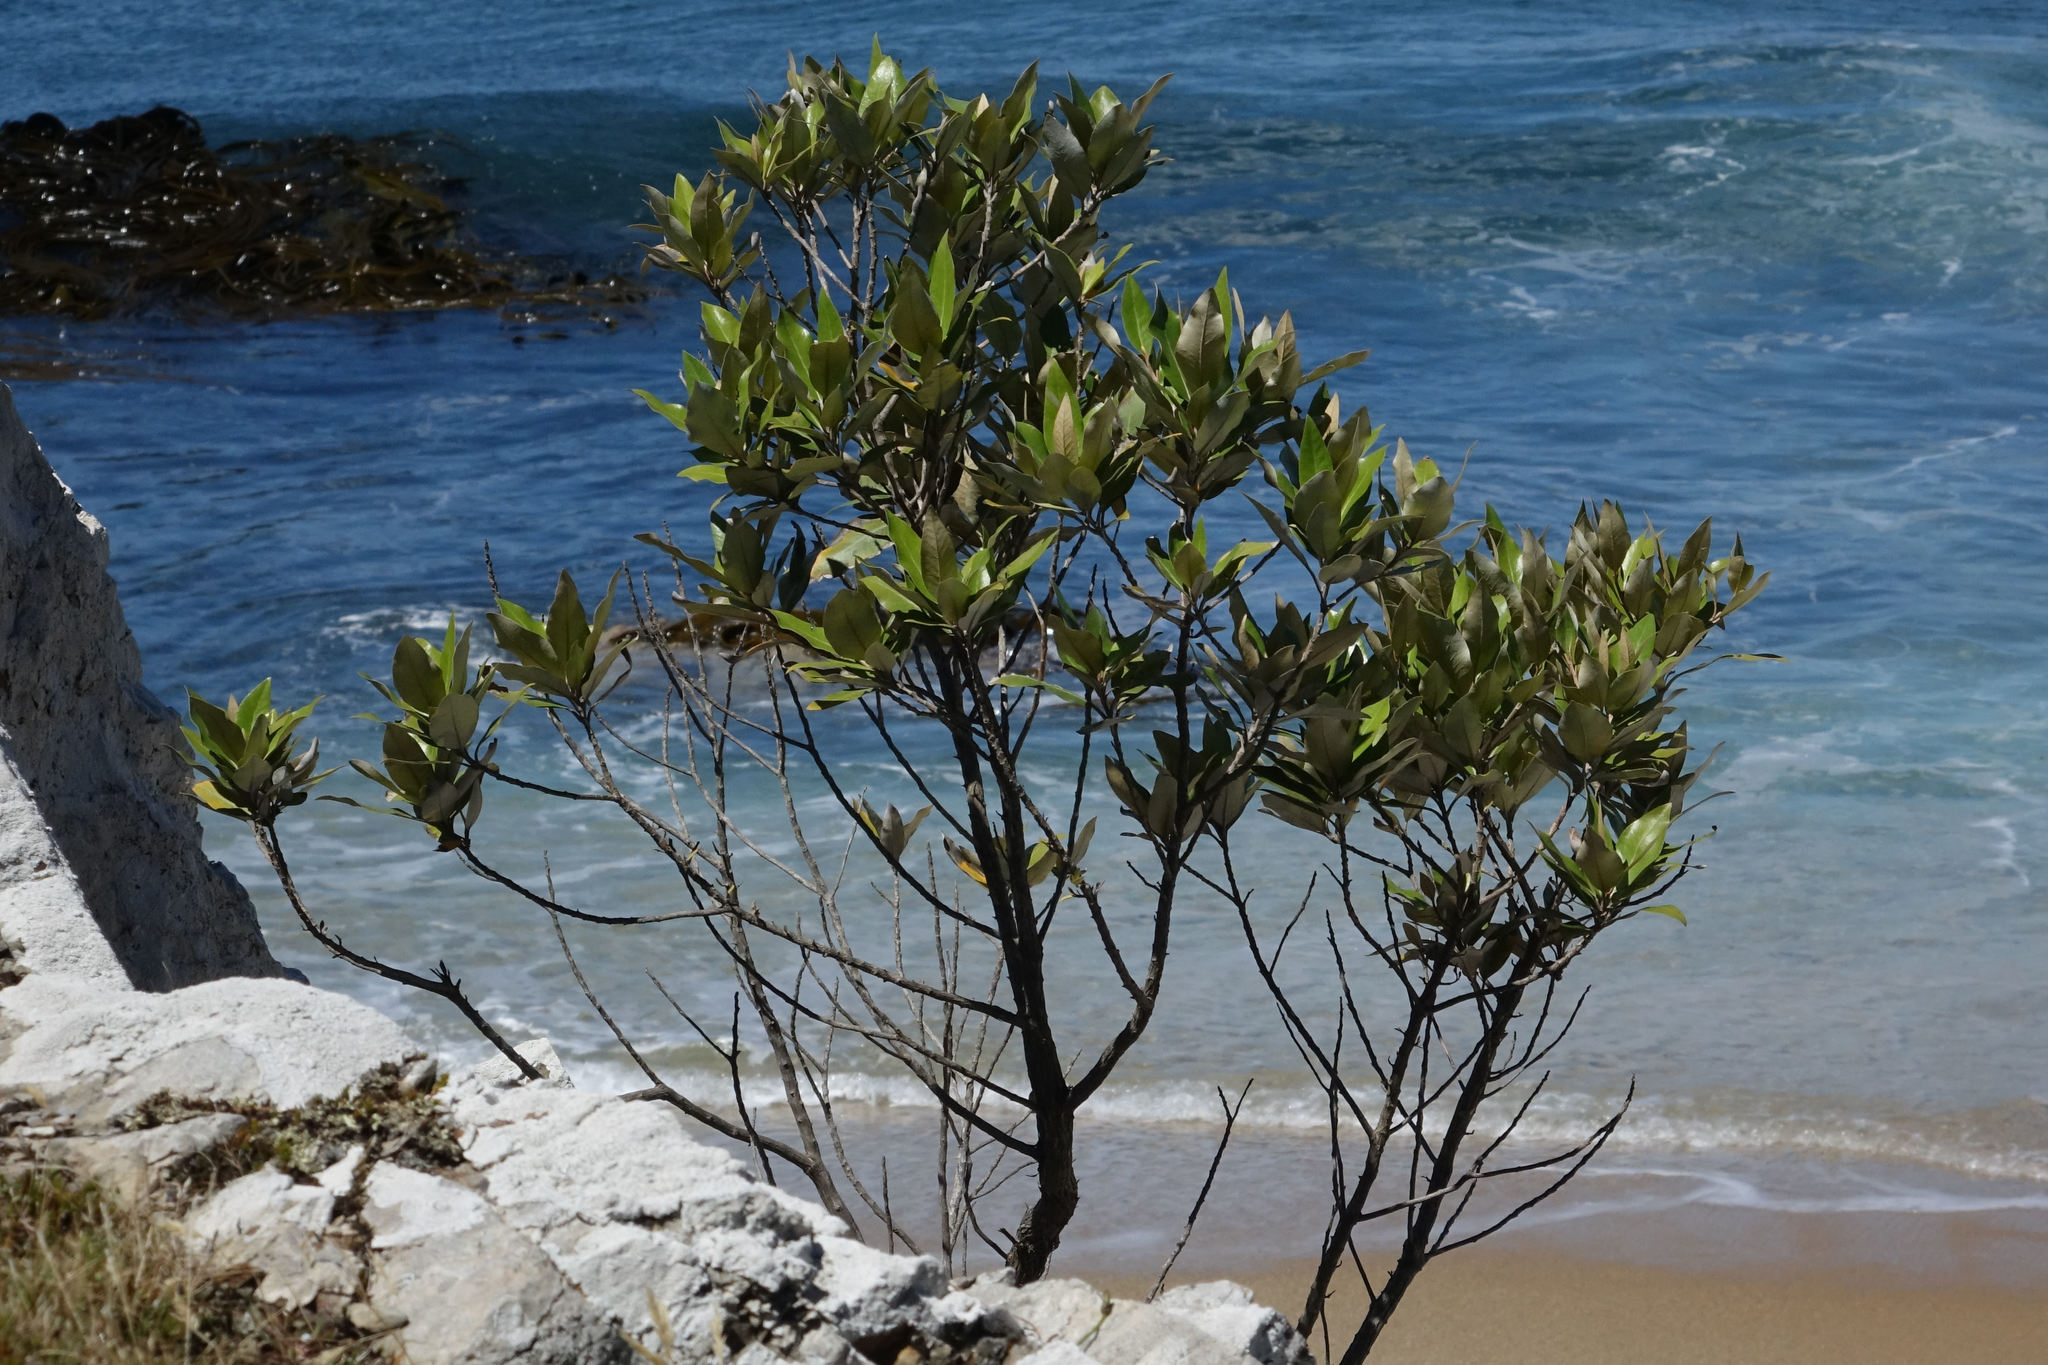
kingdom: Plantae
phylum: Tracheophyta
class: Magnoliopsida
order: Asterales
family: Asteraceae
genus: Olearia
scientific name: Olearia avicenniifolia
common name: Mangrove-leaf daisybush
